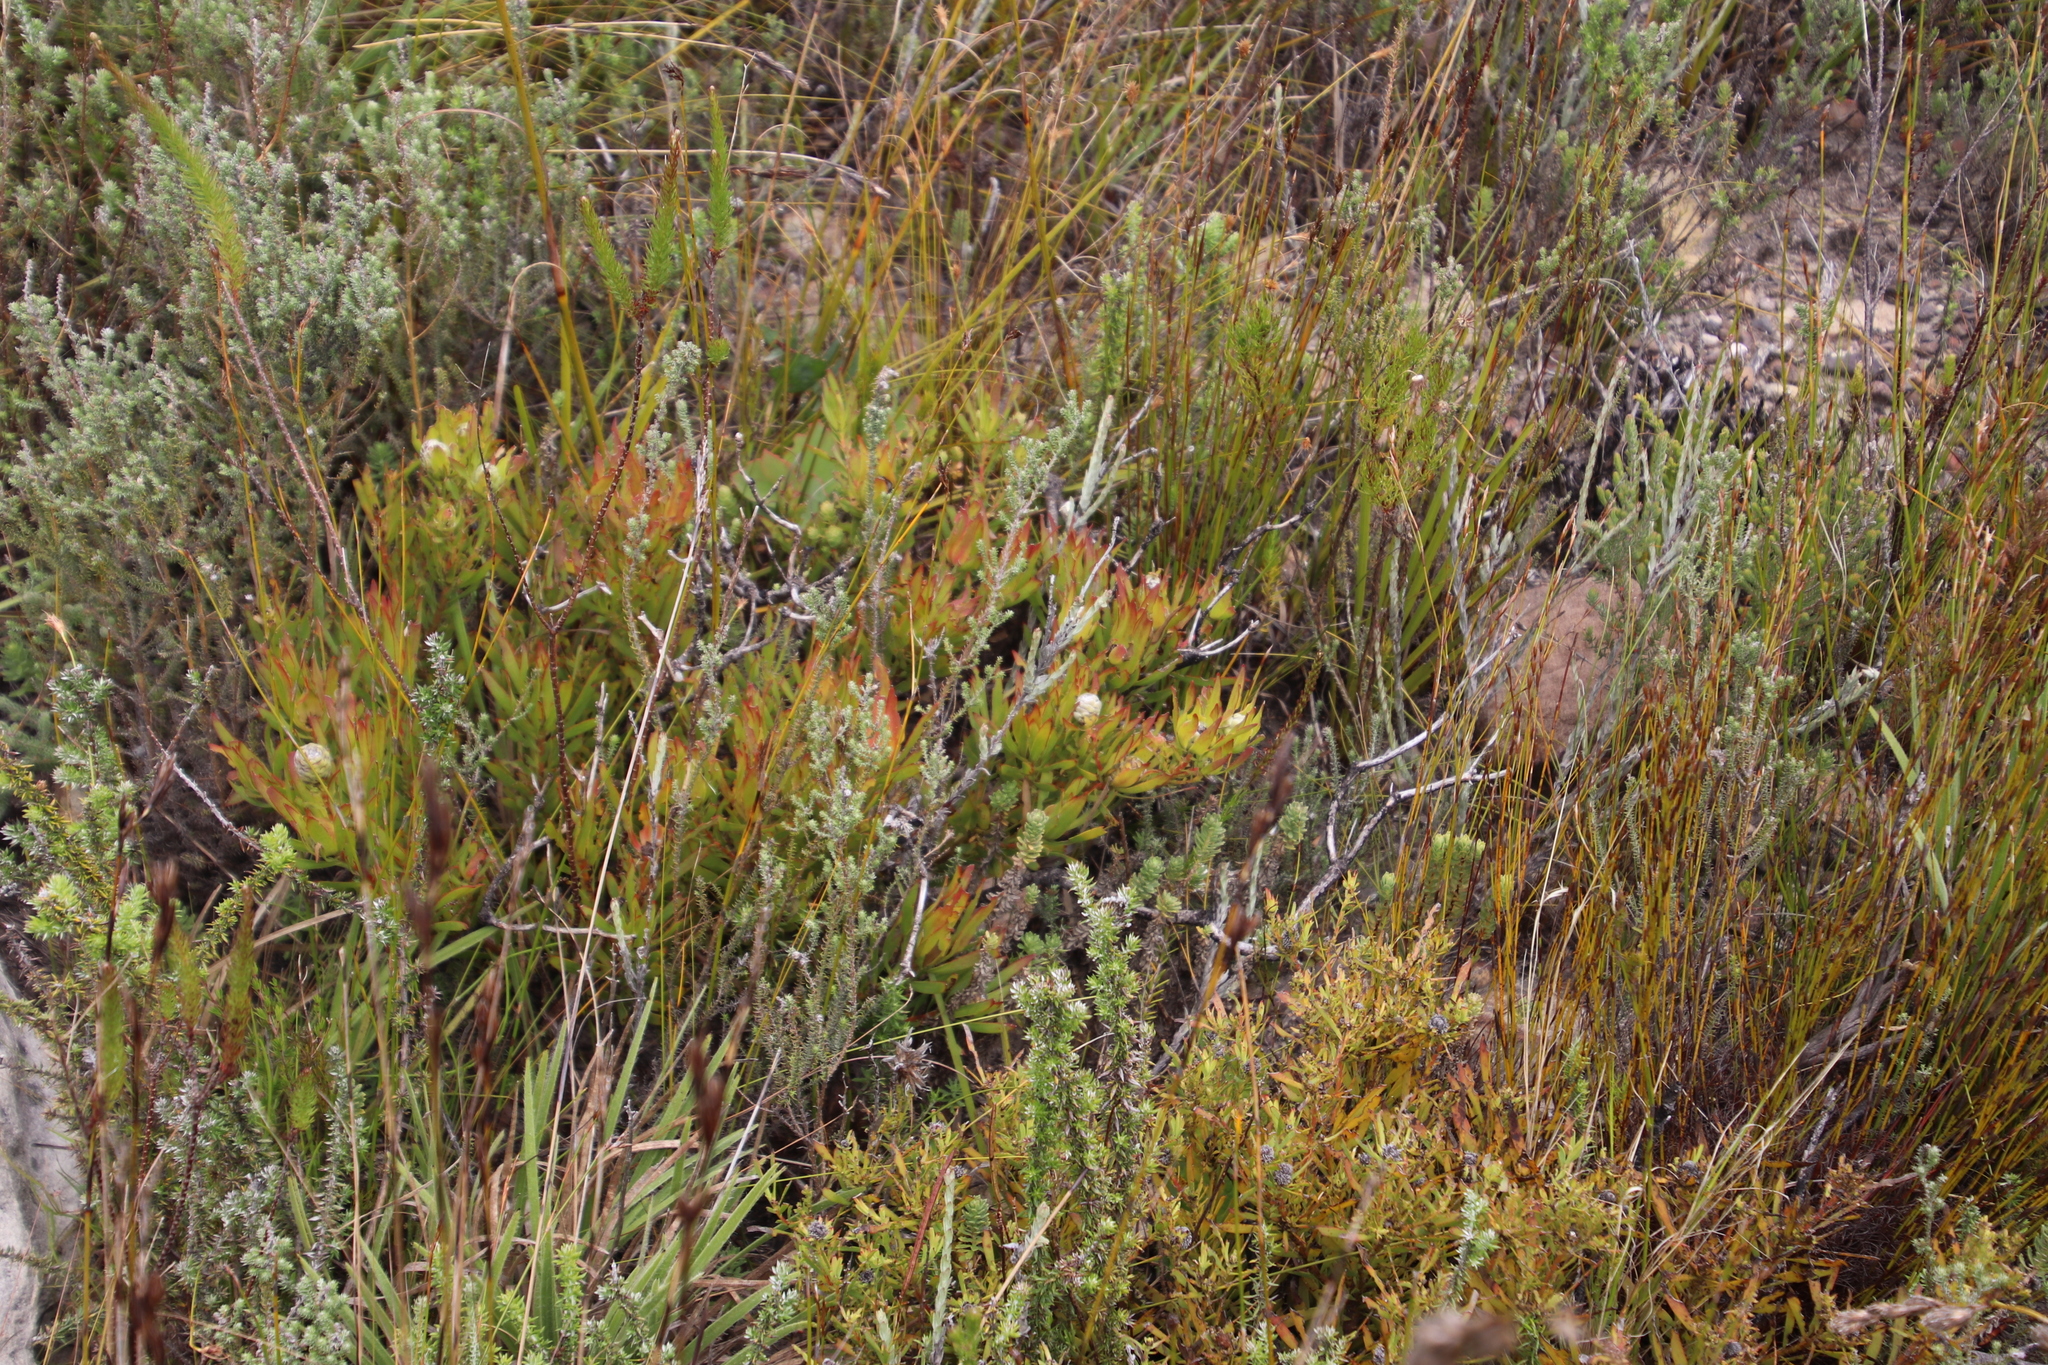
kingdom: Plantae
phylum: Tracheophyta
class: Magnoliopsida
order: Proteales
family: Proteaceae
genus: Leucadendron
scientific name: Leucadendron salignum
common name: Common sunshine conebush
